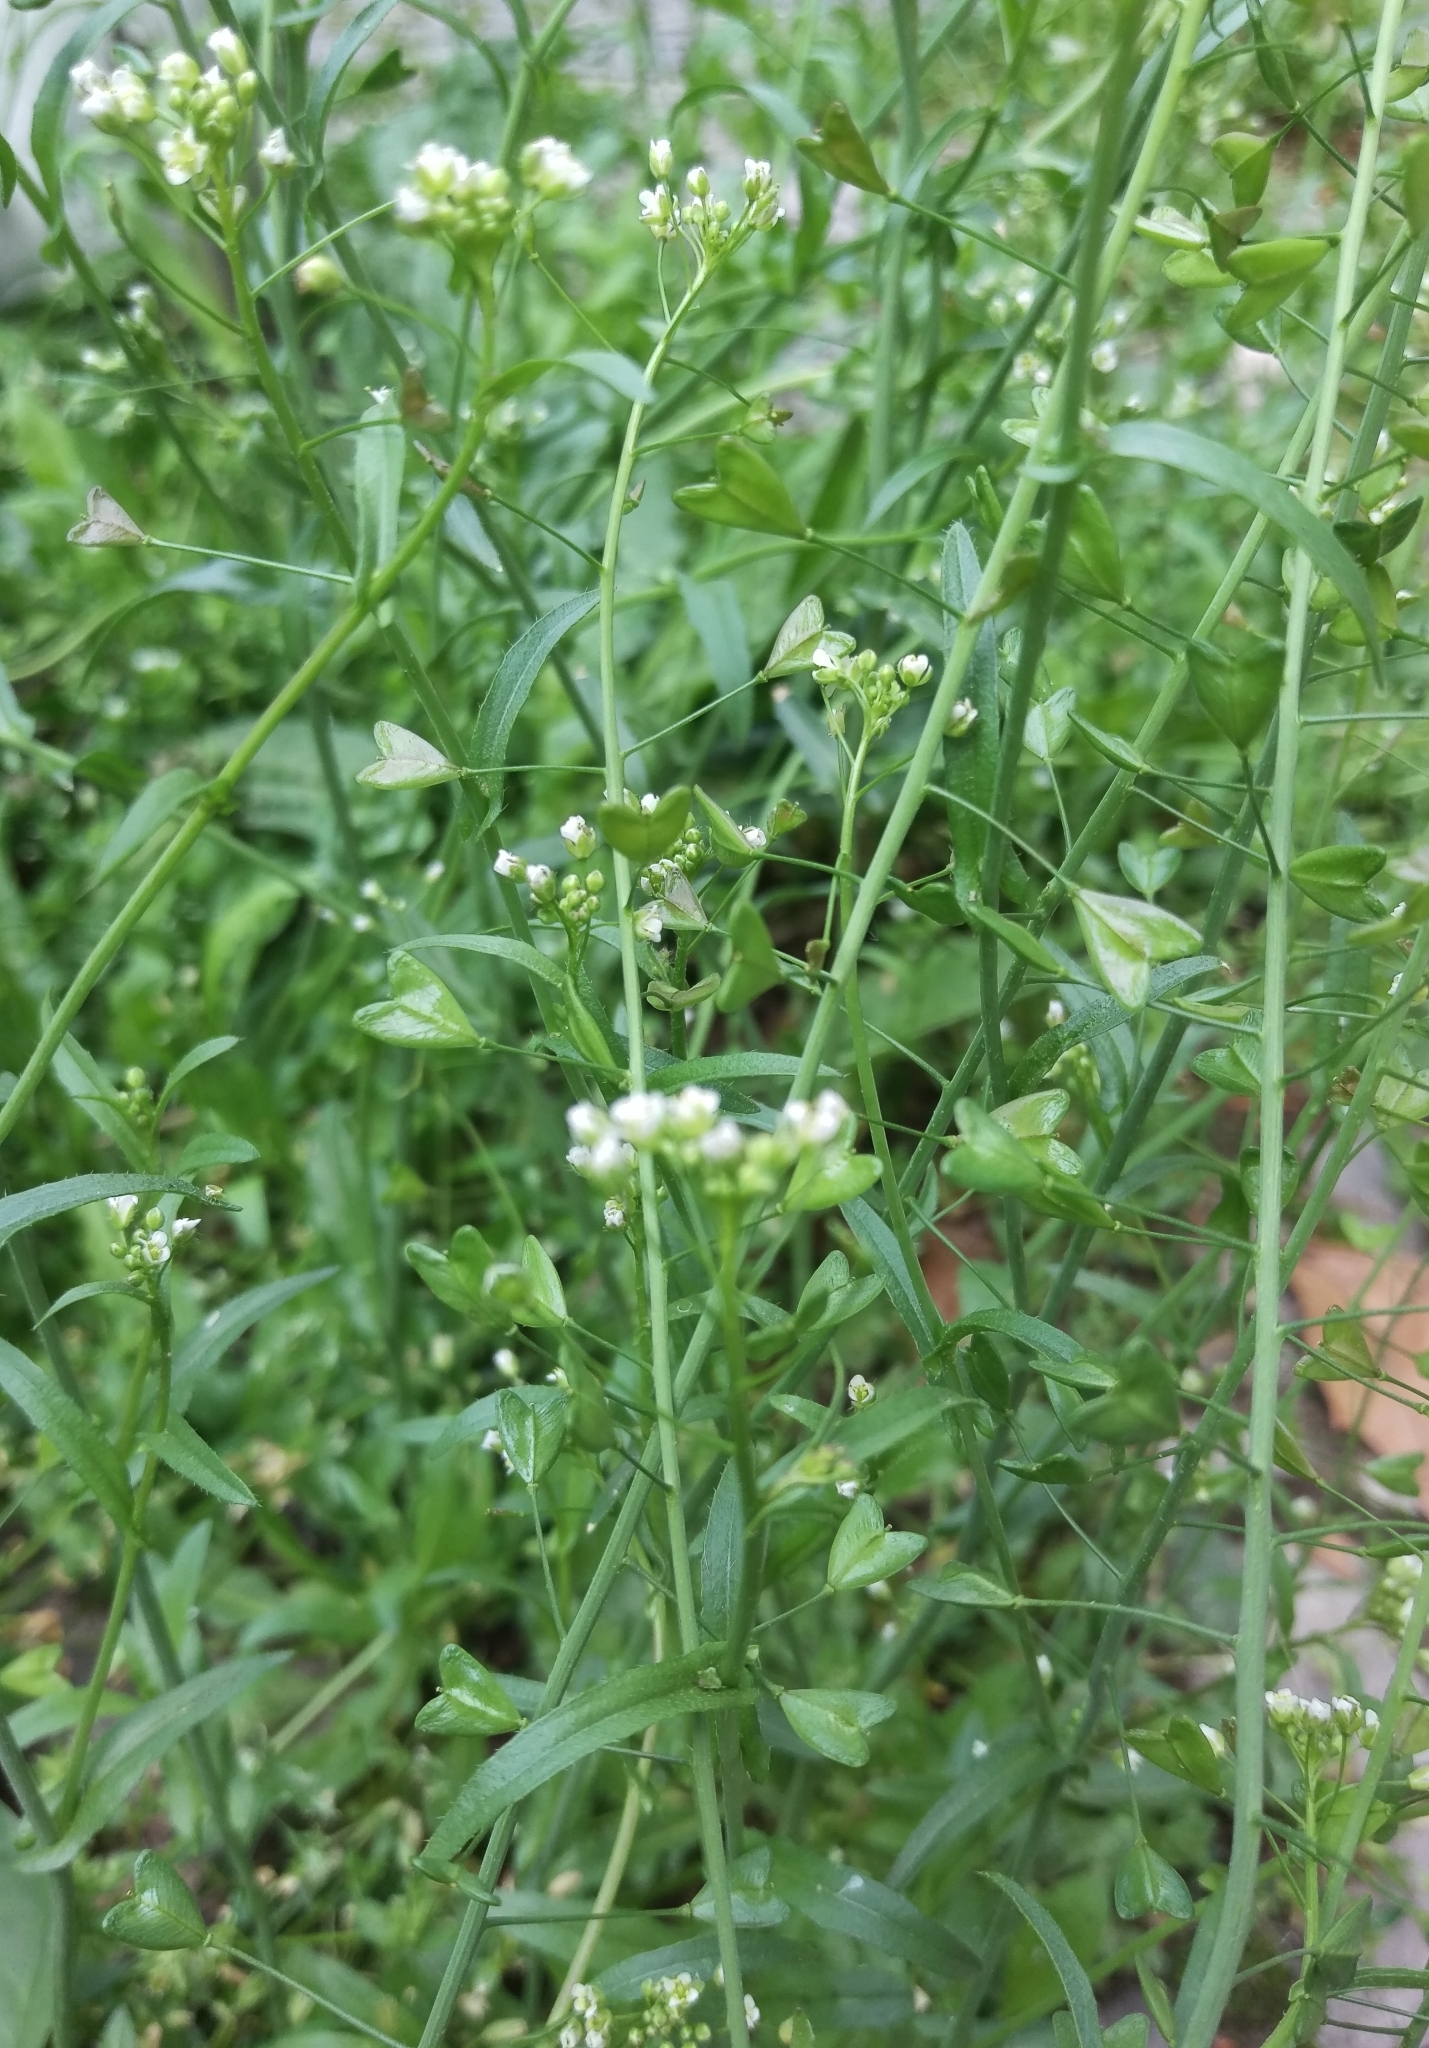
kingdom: Plantae
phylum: Tracheophyta
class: Magnoliopsida
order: Brassicales
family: Brassicaceae
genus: Capsella
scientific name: Capsella bursa-pastoris
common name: Shepherd's purse
